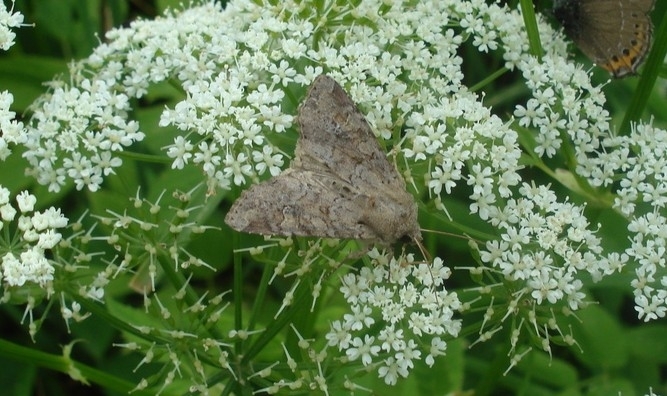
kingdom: Animalia
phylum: Arthropoda
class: Insecta
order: Lepidoptera
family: Noctuidae
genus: Parastichtis
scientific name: Parastichtis suspecta
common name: Suspected
